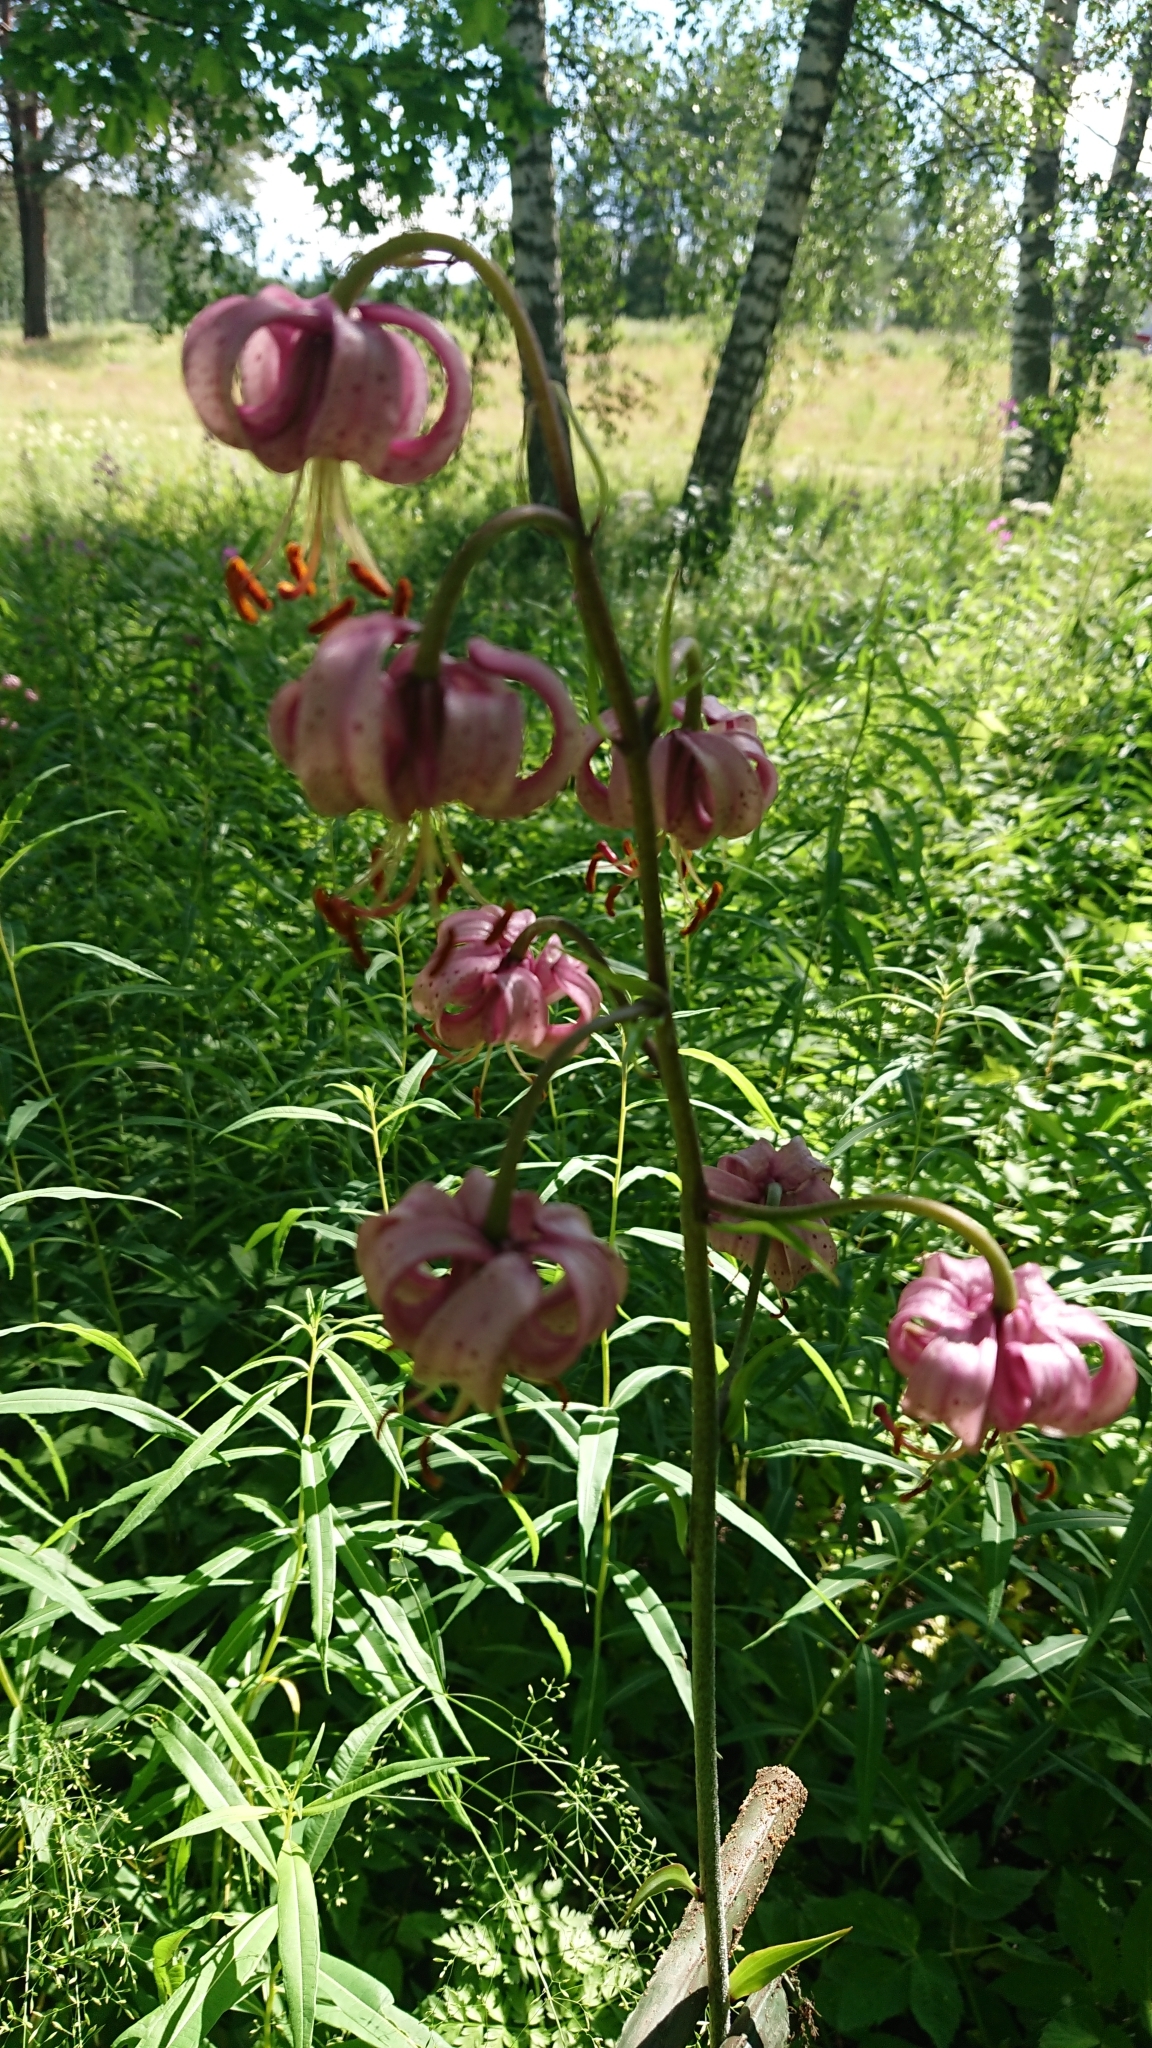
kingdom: Plantae
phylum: Tracheophyta
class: Liliopsida
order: Liliales
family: Liliaceae
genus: Lilium
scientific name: Lilium martagon
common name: Martagon lily
